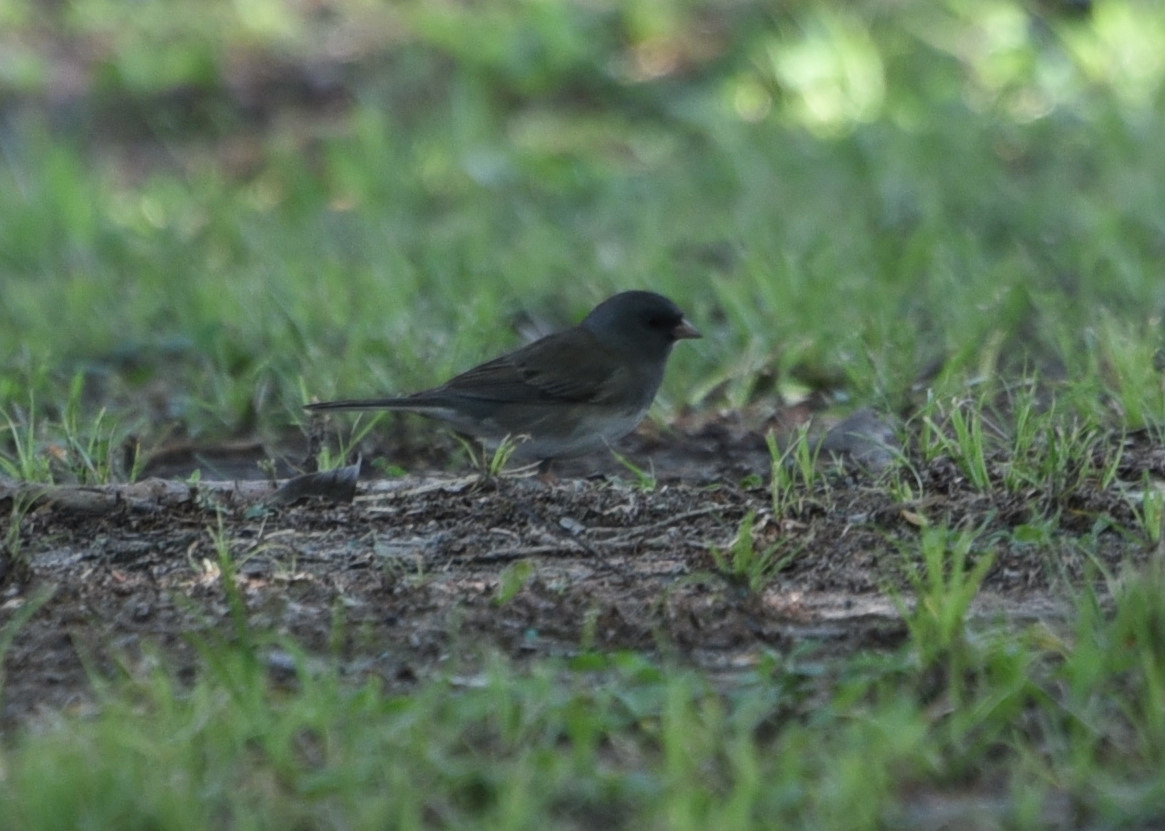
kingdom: Animalia
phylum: Chordata
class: Aves
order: Passeriformes
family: Passerellidae
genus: Junco
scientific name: Junco hyemalis
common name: Dark-eyed junco
